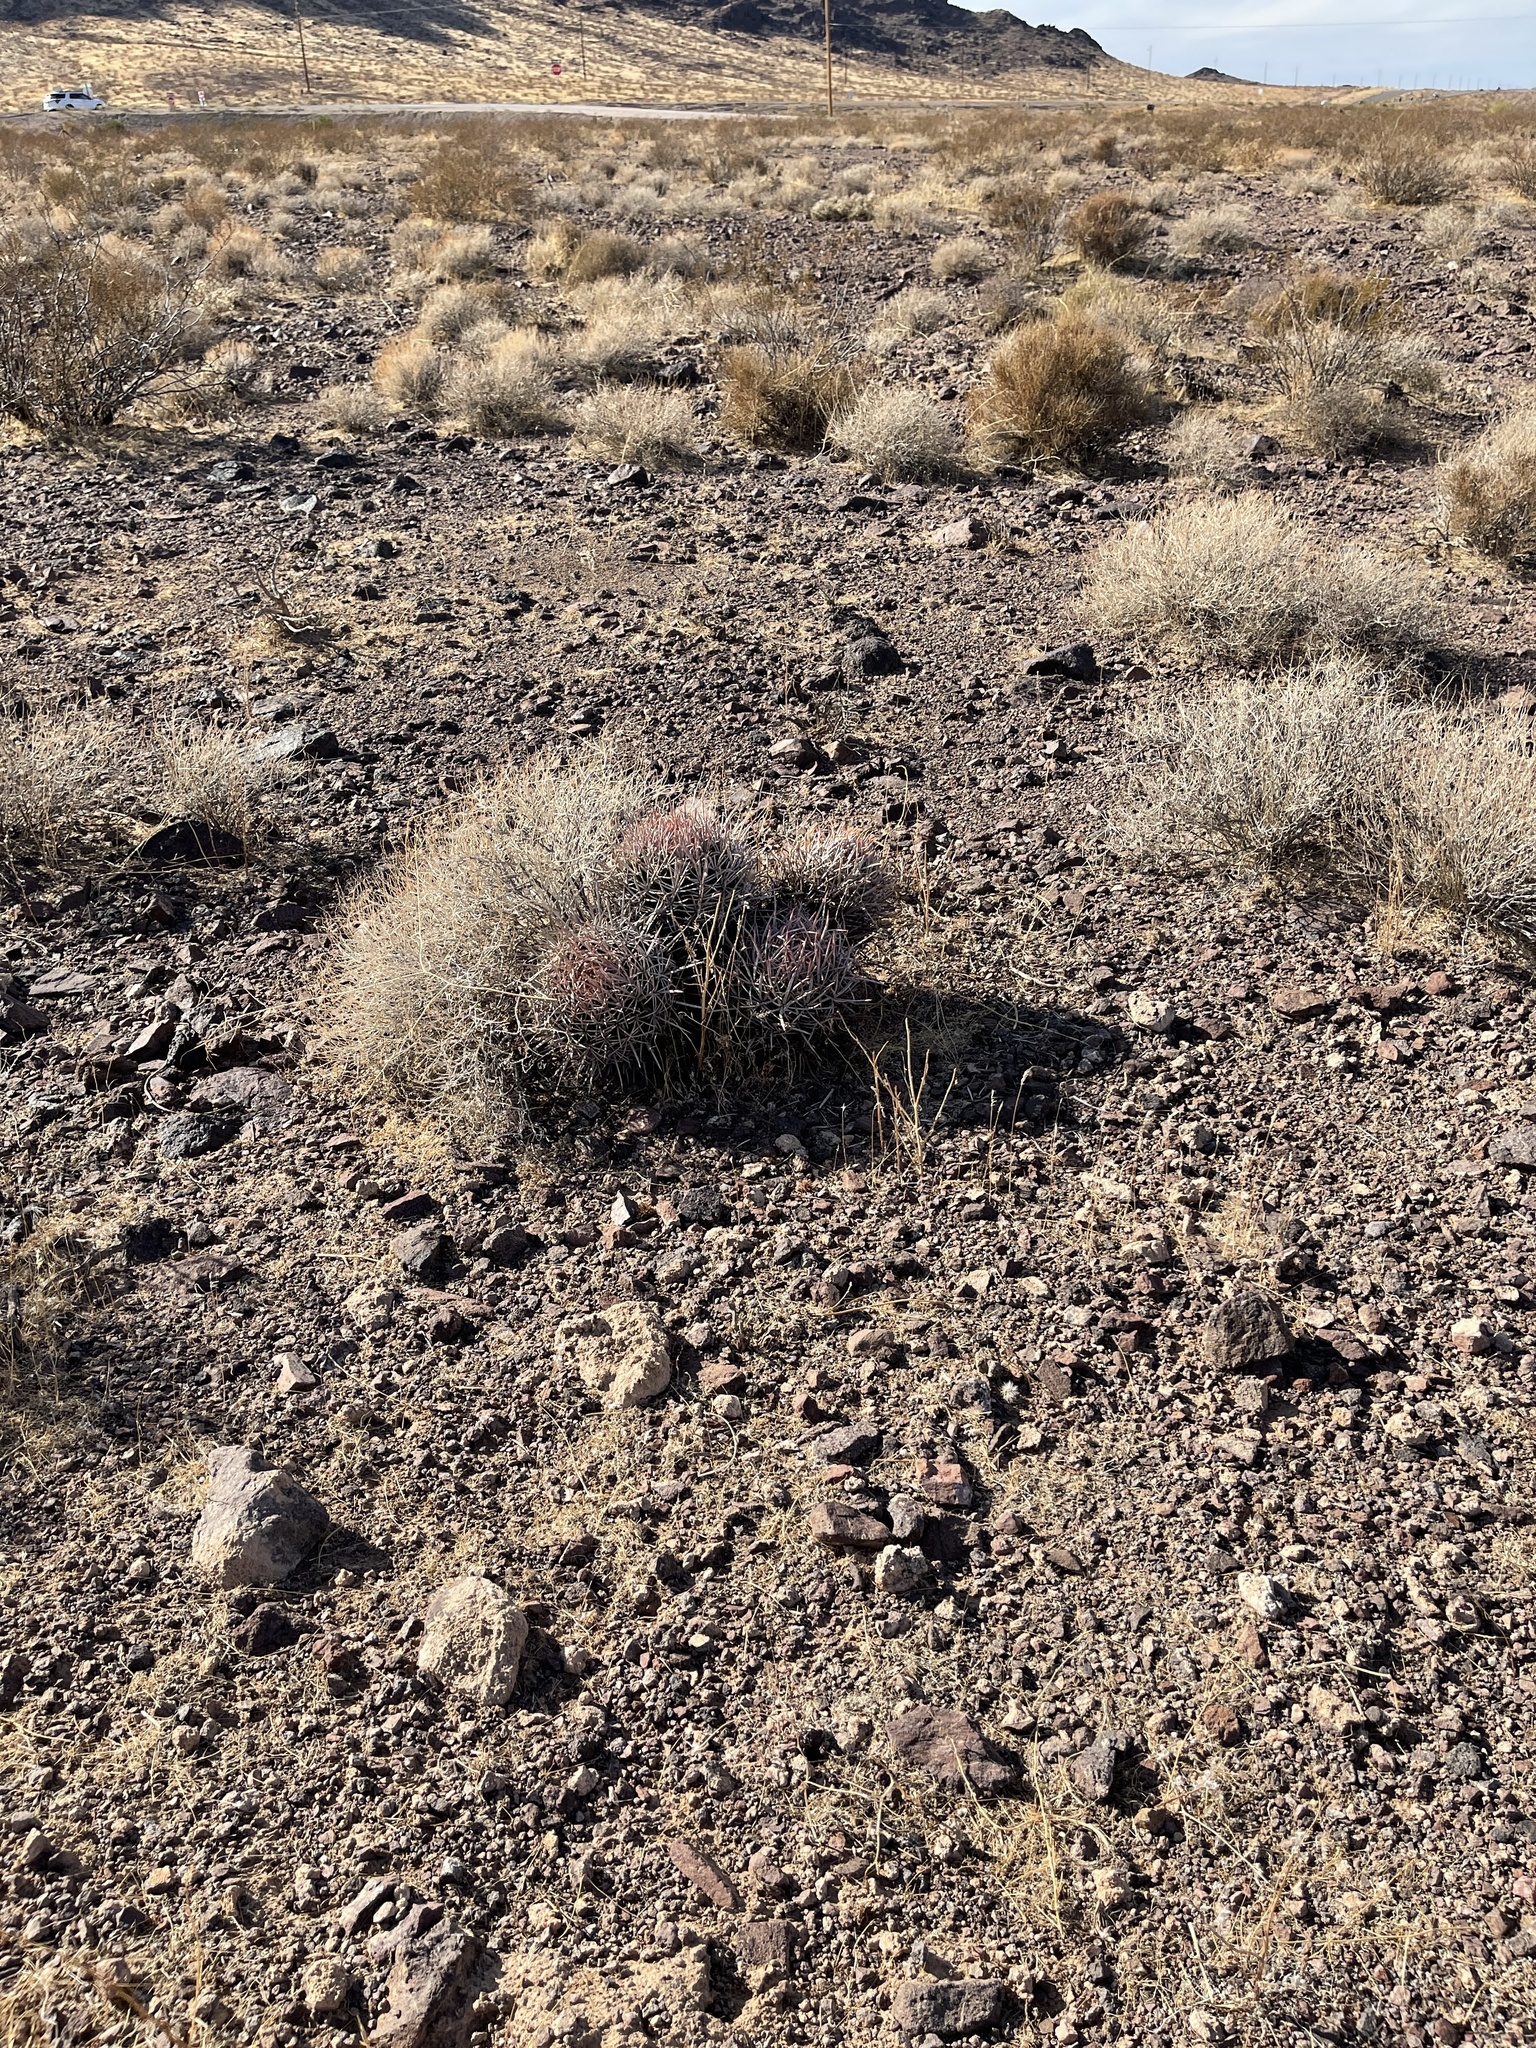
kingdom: Plantae
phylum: Tracheophyta
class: Magnoliopsida
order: Caryophyllales
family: Cactaceae
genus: Echinocactus
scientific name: Echinocactus polycephalus
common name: Cottontop cactus
